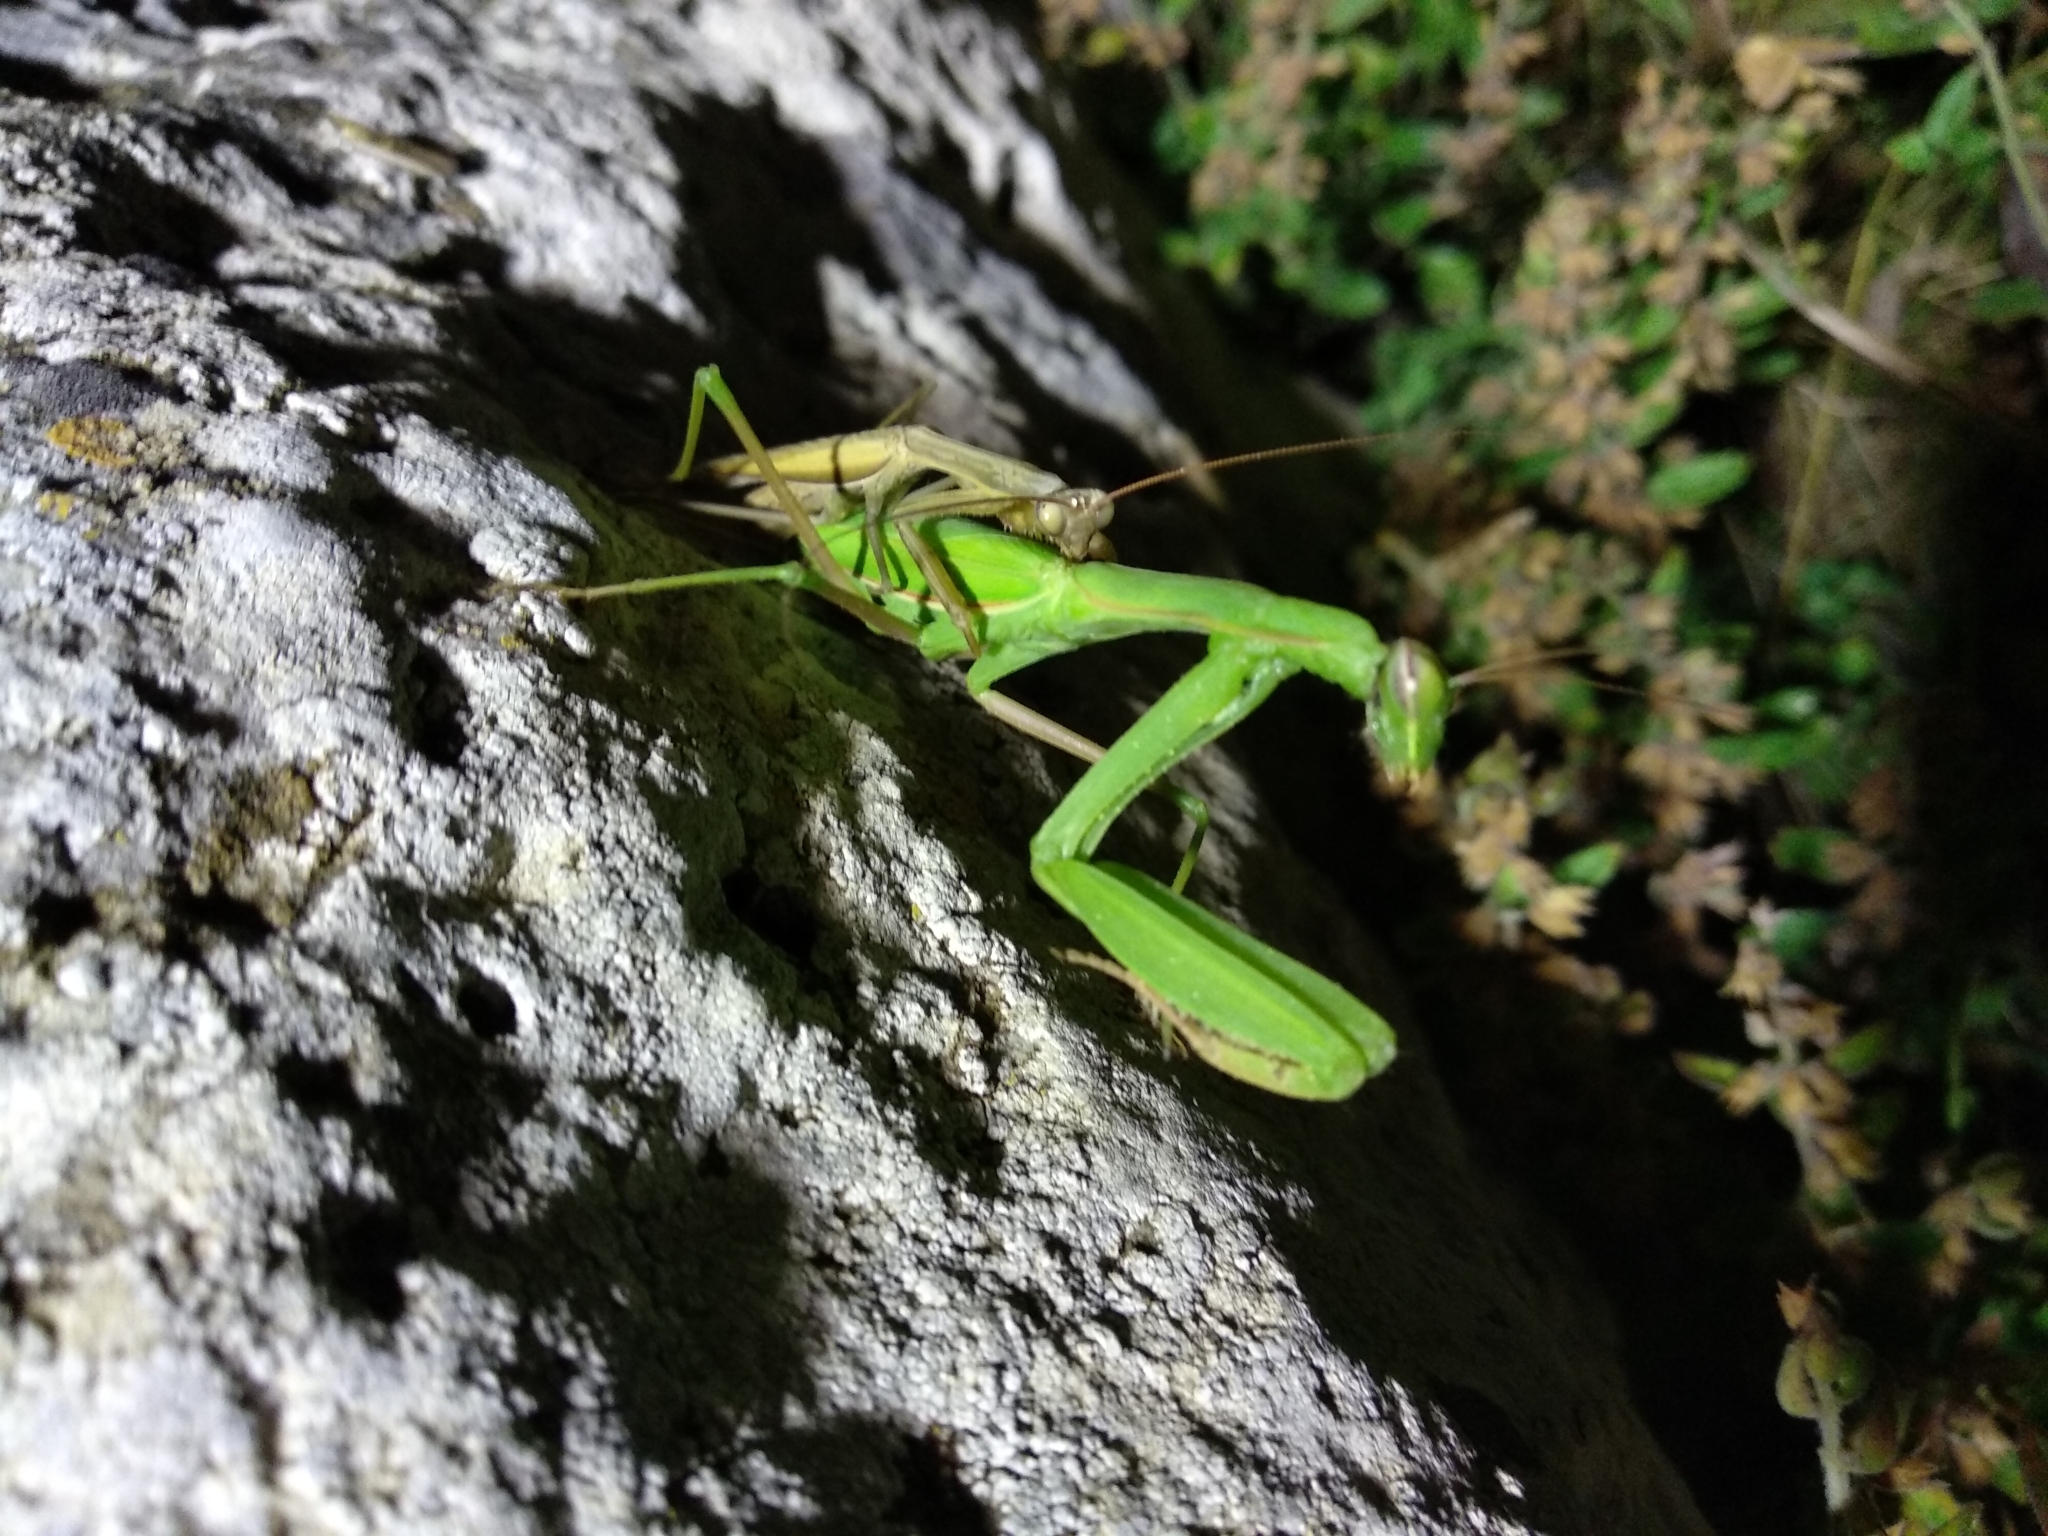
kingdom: Animalia
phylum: Arthropoda
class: Insecta
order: Mantodea
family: Mantidae
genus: Mantis
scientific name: Mantis religiosa
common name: Praying mantis
